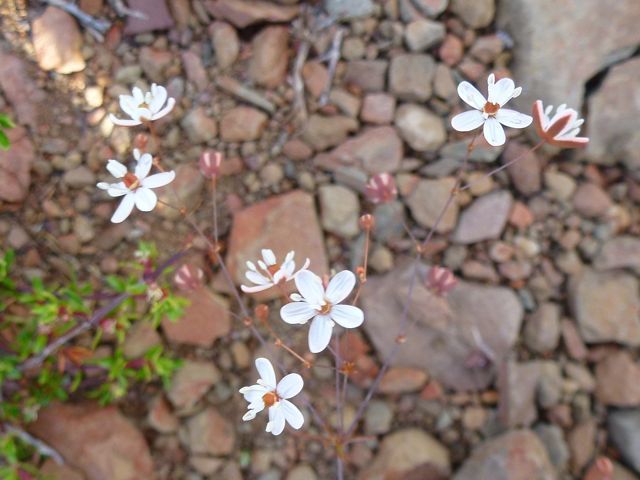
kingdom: Plantae
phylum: Tracheophyta
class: Magnoliopsida
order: Caryophyllales
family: Molluginaceae
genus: Pharnaceum
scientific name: Pharnaceum ciliare
